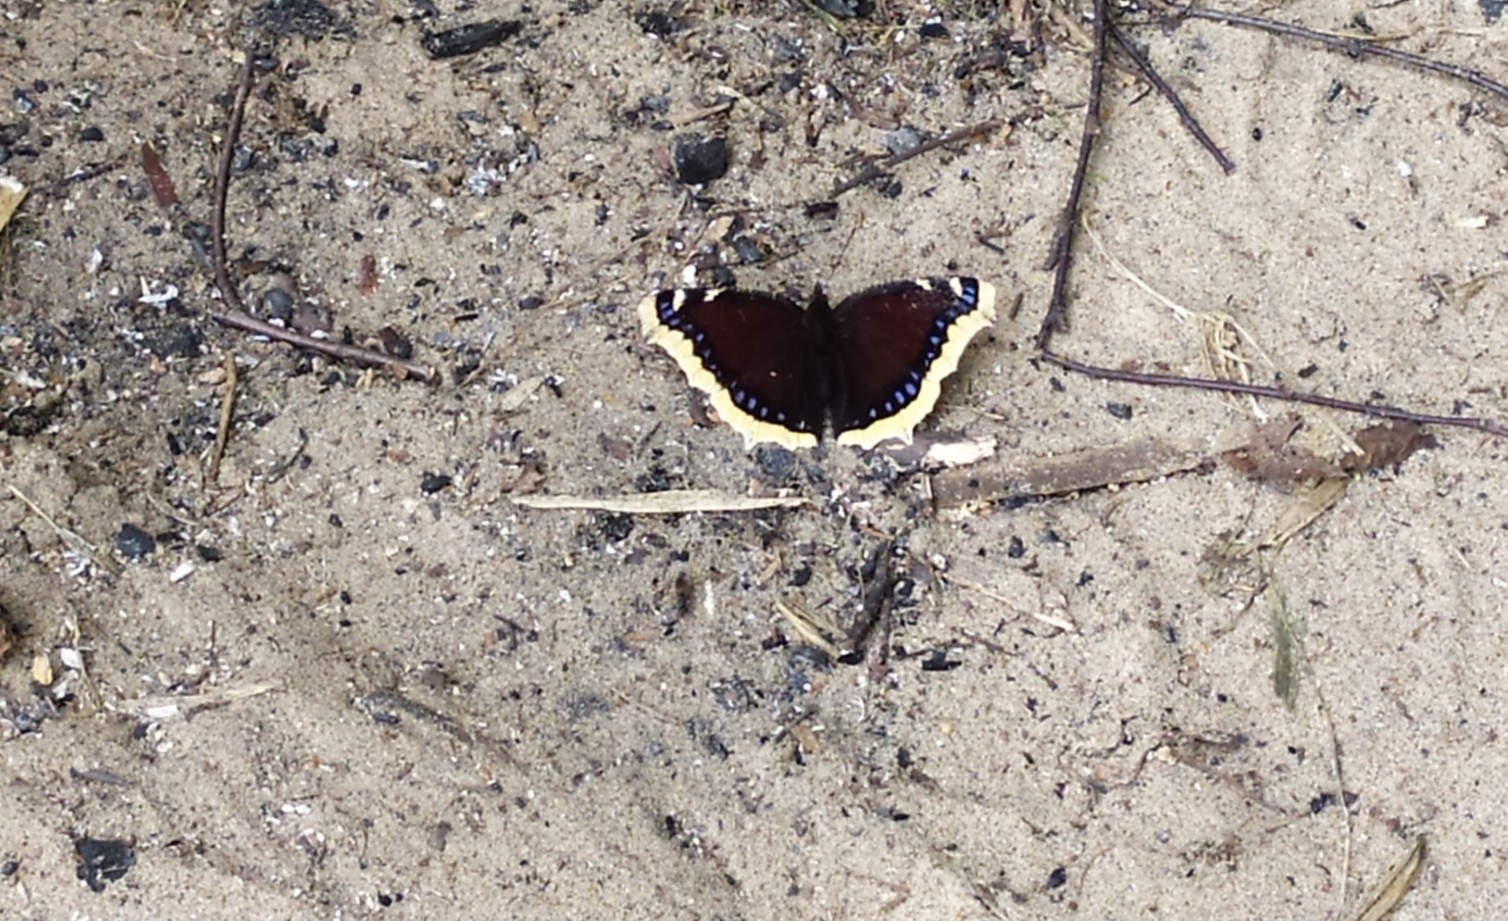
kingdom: Animalia
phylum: Arthropoda
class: Insecta
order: Lepidoptera
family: Nymphalidae
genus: Nymphalis
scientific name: Nymphalis antiopa
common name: Camberwell beauty
